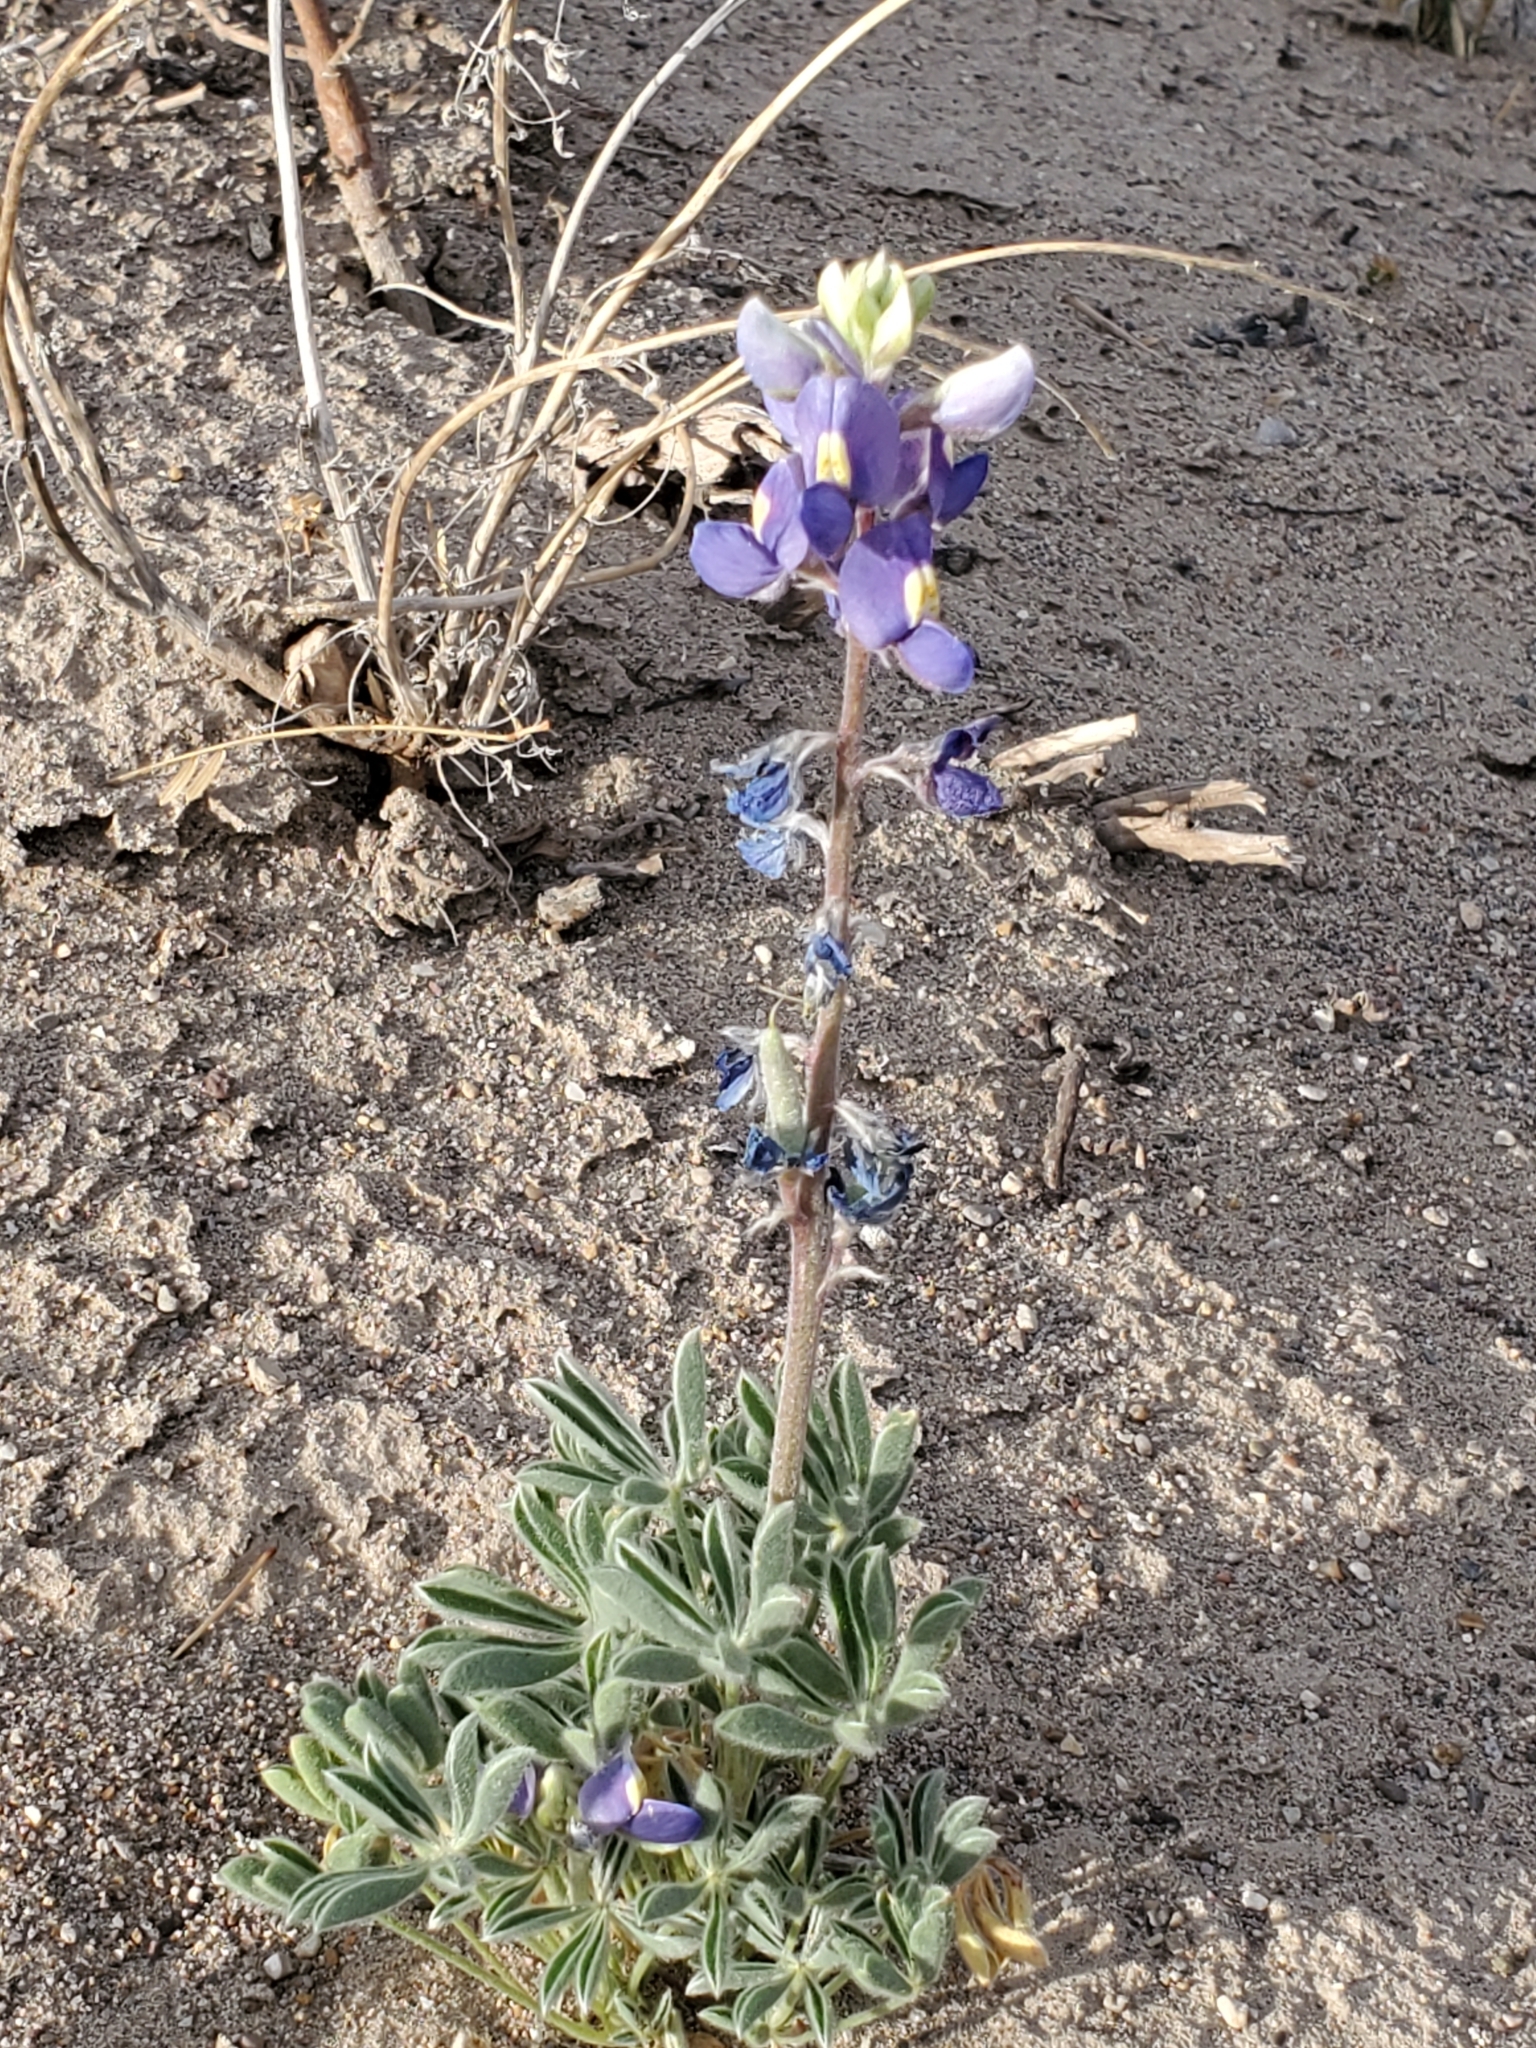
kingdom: Plantae
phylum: Tracheophyta
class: Magnoliopsida
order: Fabales
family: Fabaceae
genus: Lupinus
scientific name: Lupinus havardii
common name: Chisos bluebonnet
